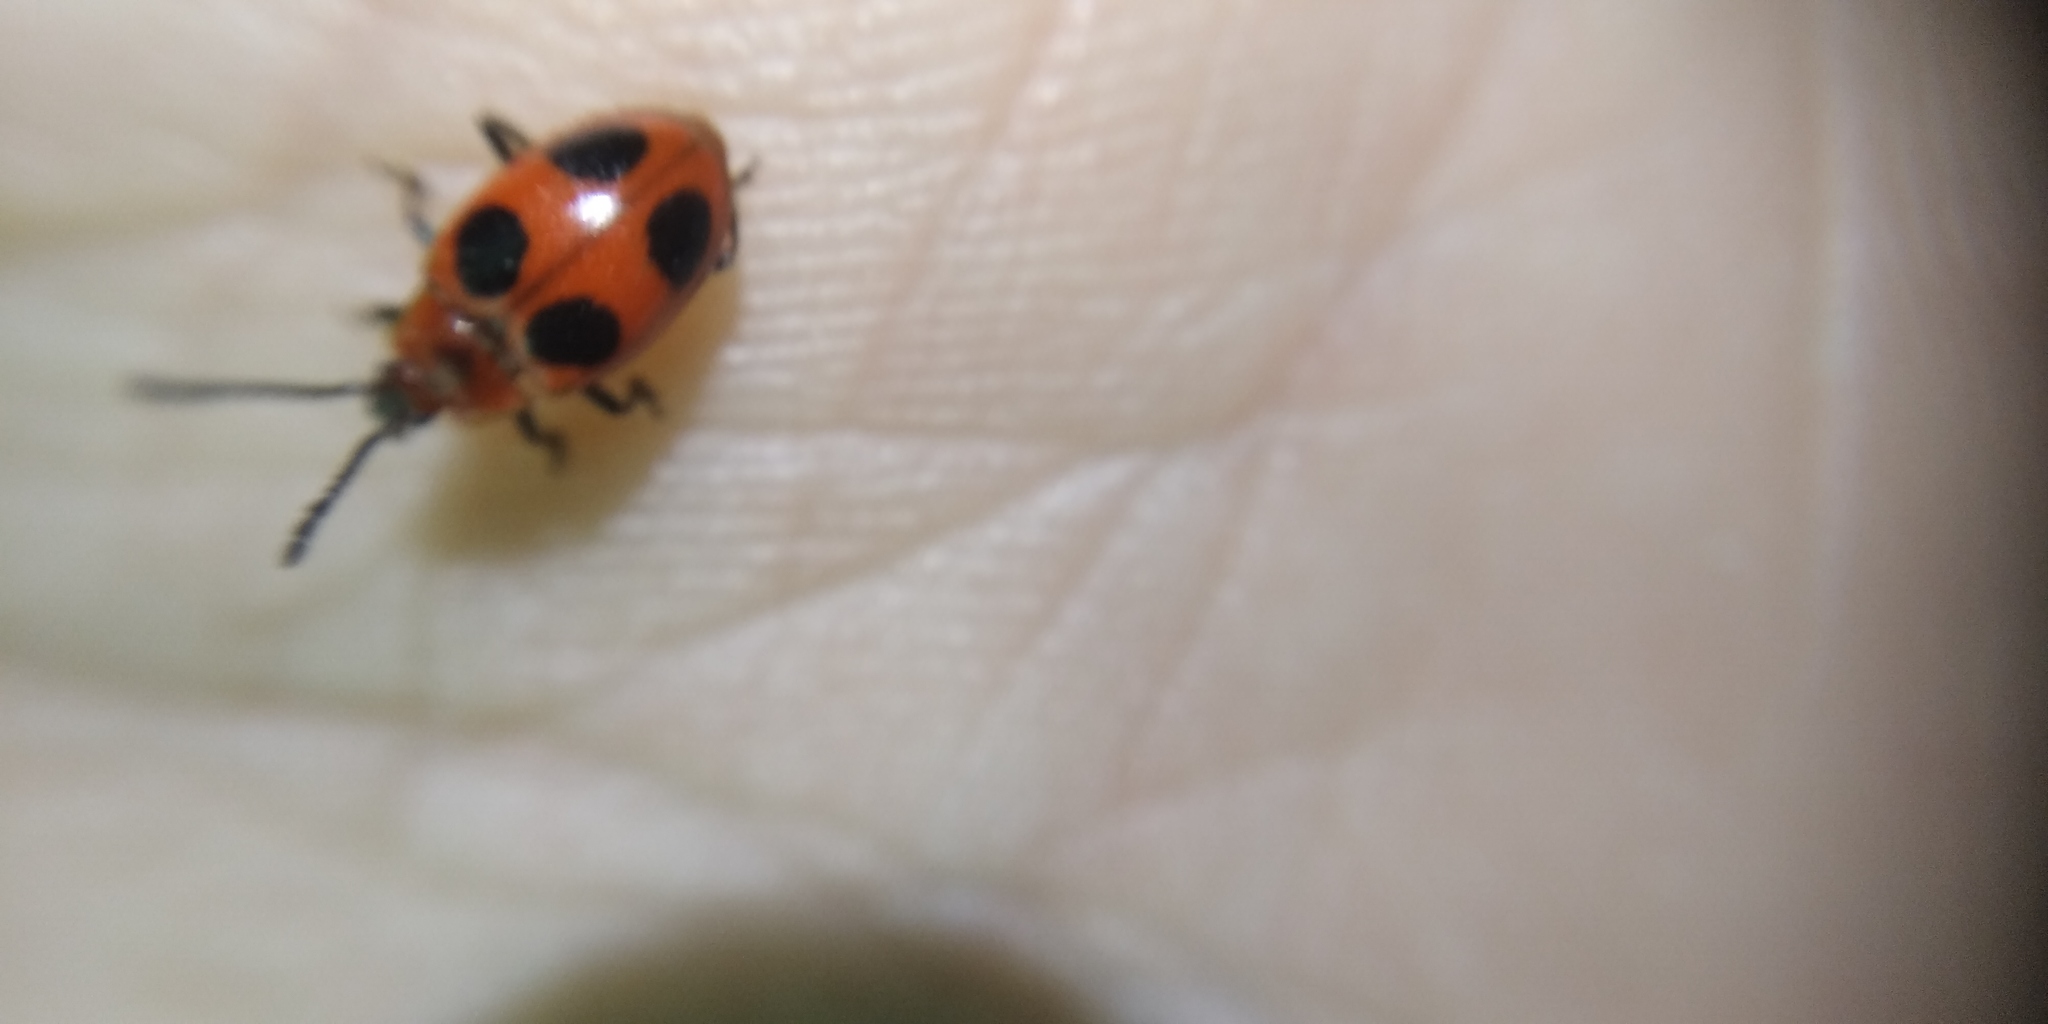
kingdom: Animalia
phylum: Arthropoda
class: Insecta
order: Coleoptera
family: Endomychidae
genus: Endomychus
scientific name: Endomychus coccineus
